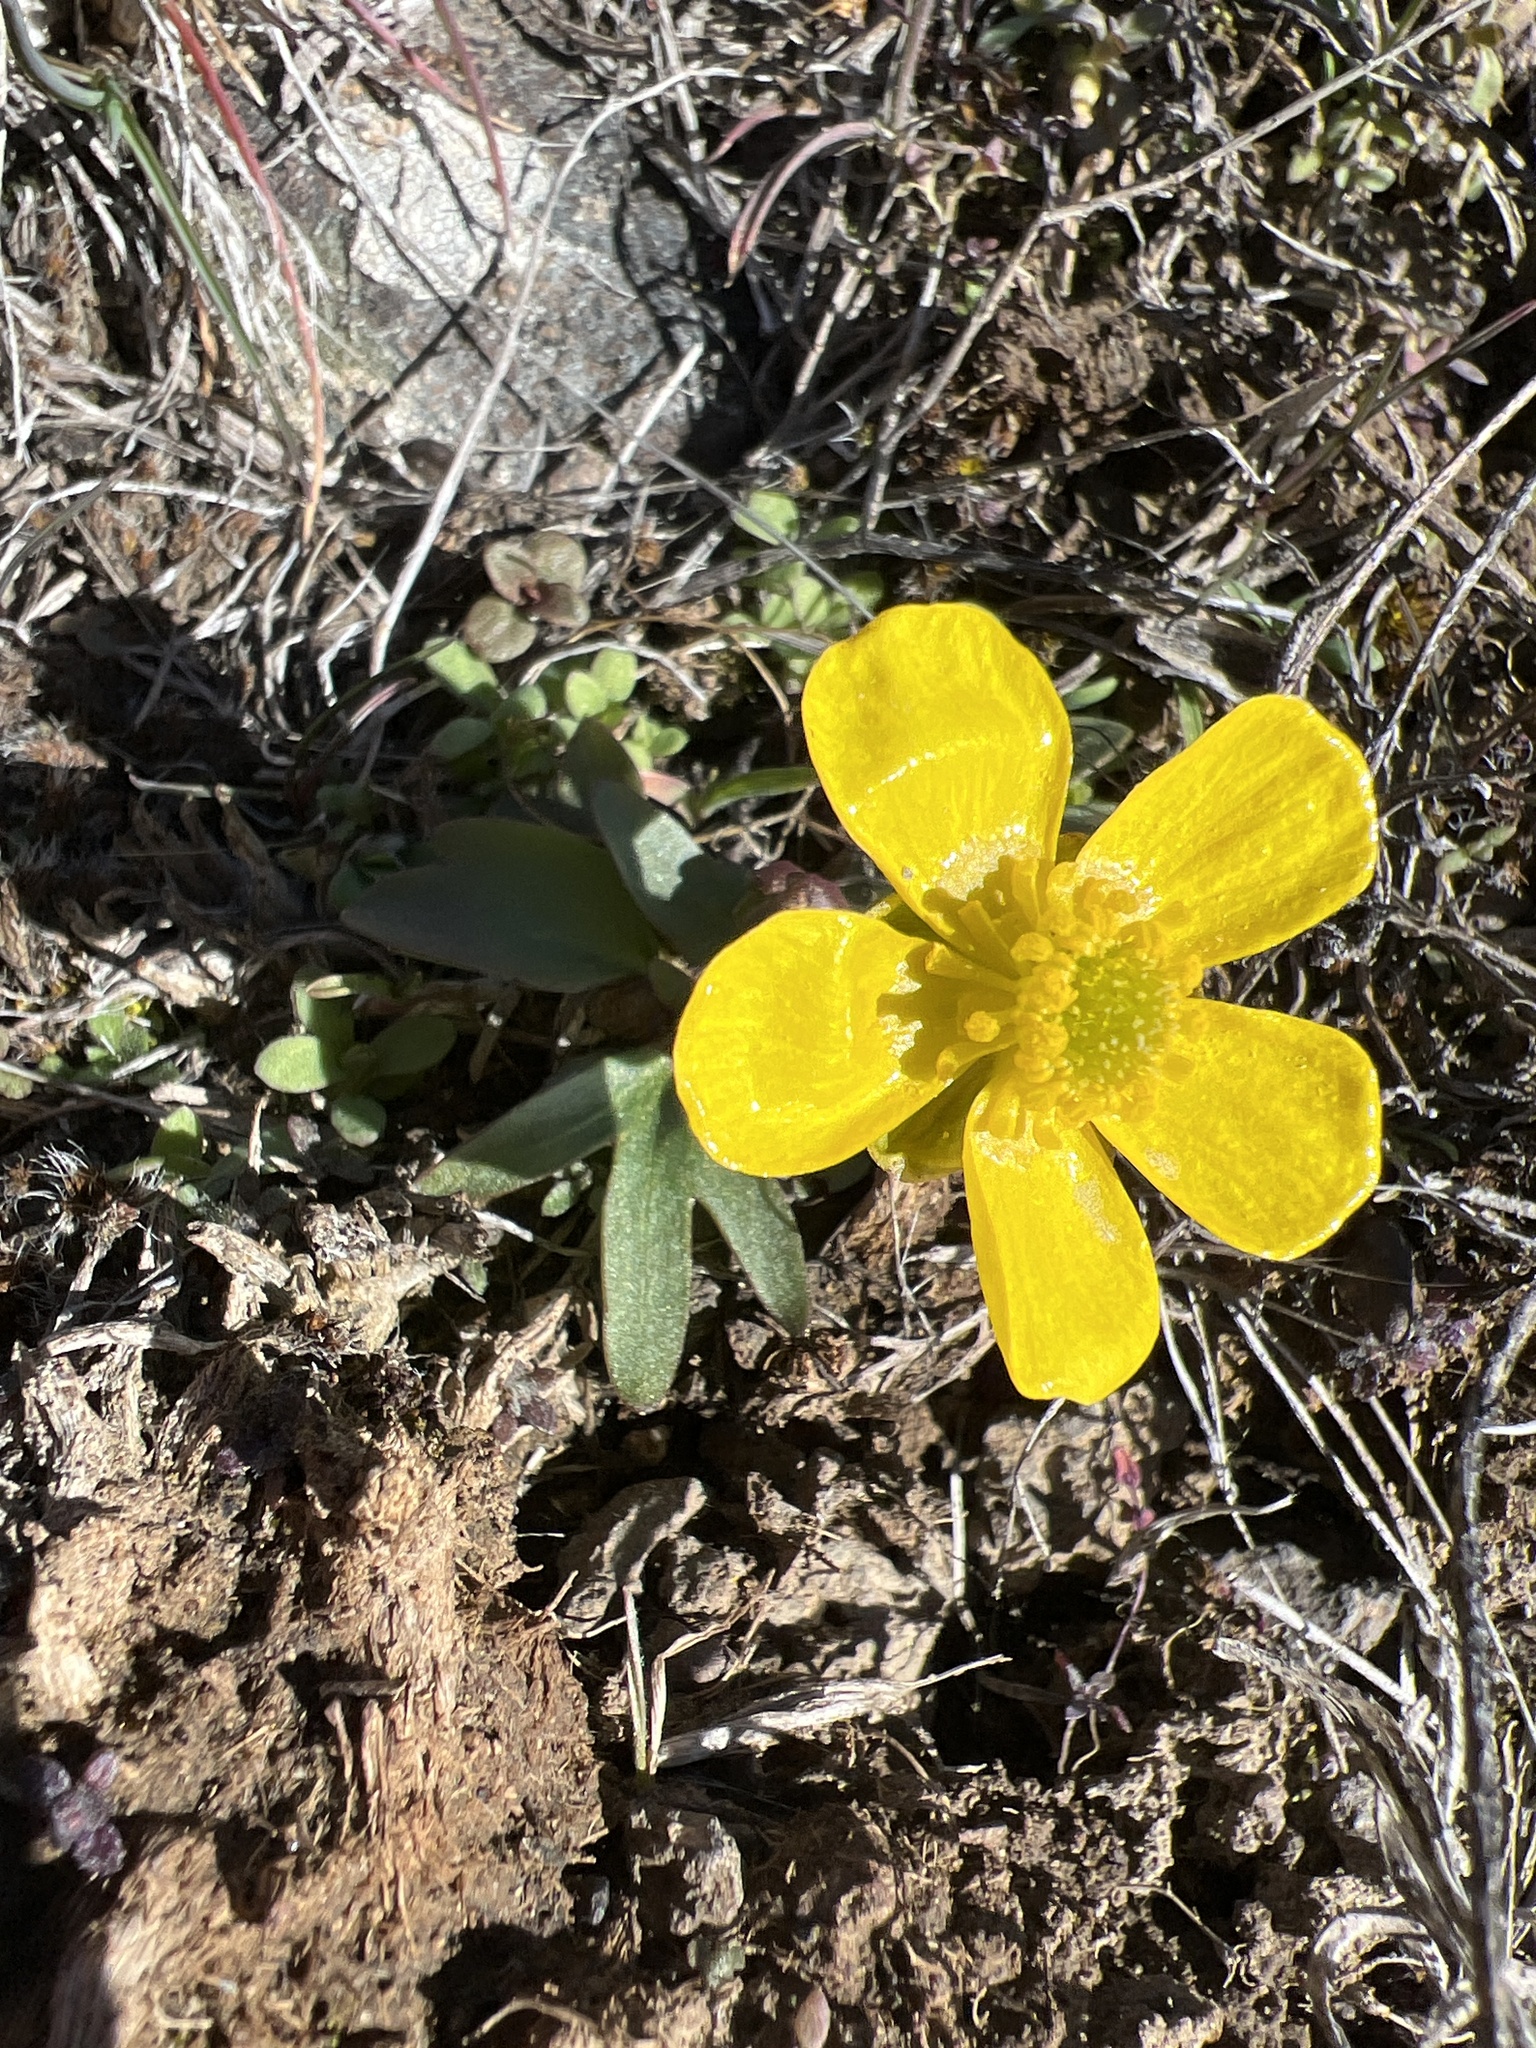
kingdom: Plantae
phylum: Tracheophyta
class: Magnoliopsida
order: Ranunculales
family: Ranunculaceae
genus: Ranunculus
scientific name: Ranunculus glaberrimus
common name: Sagebrush buttercup
